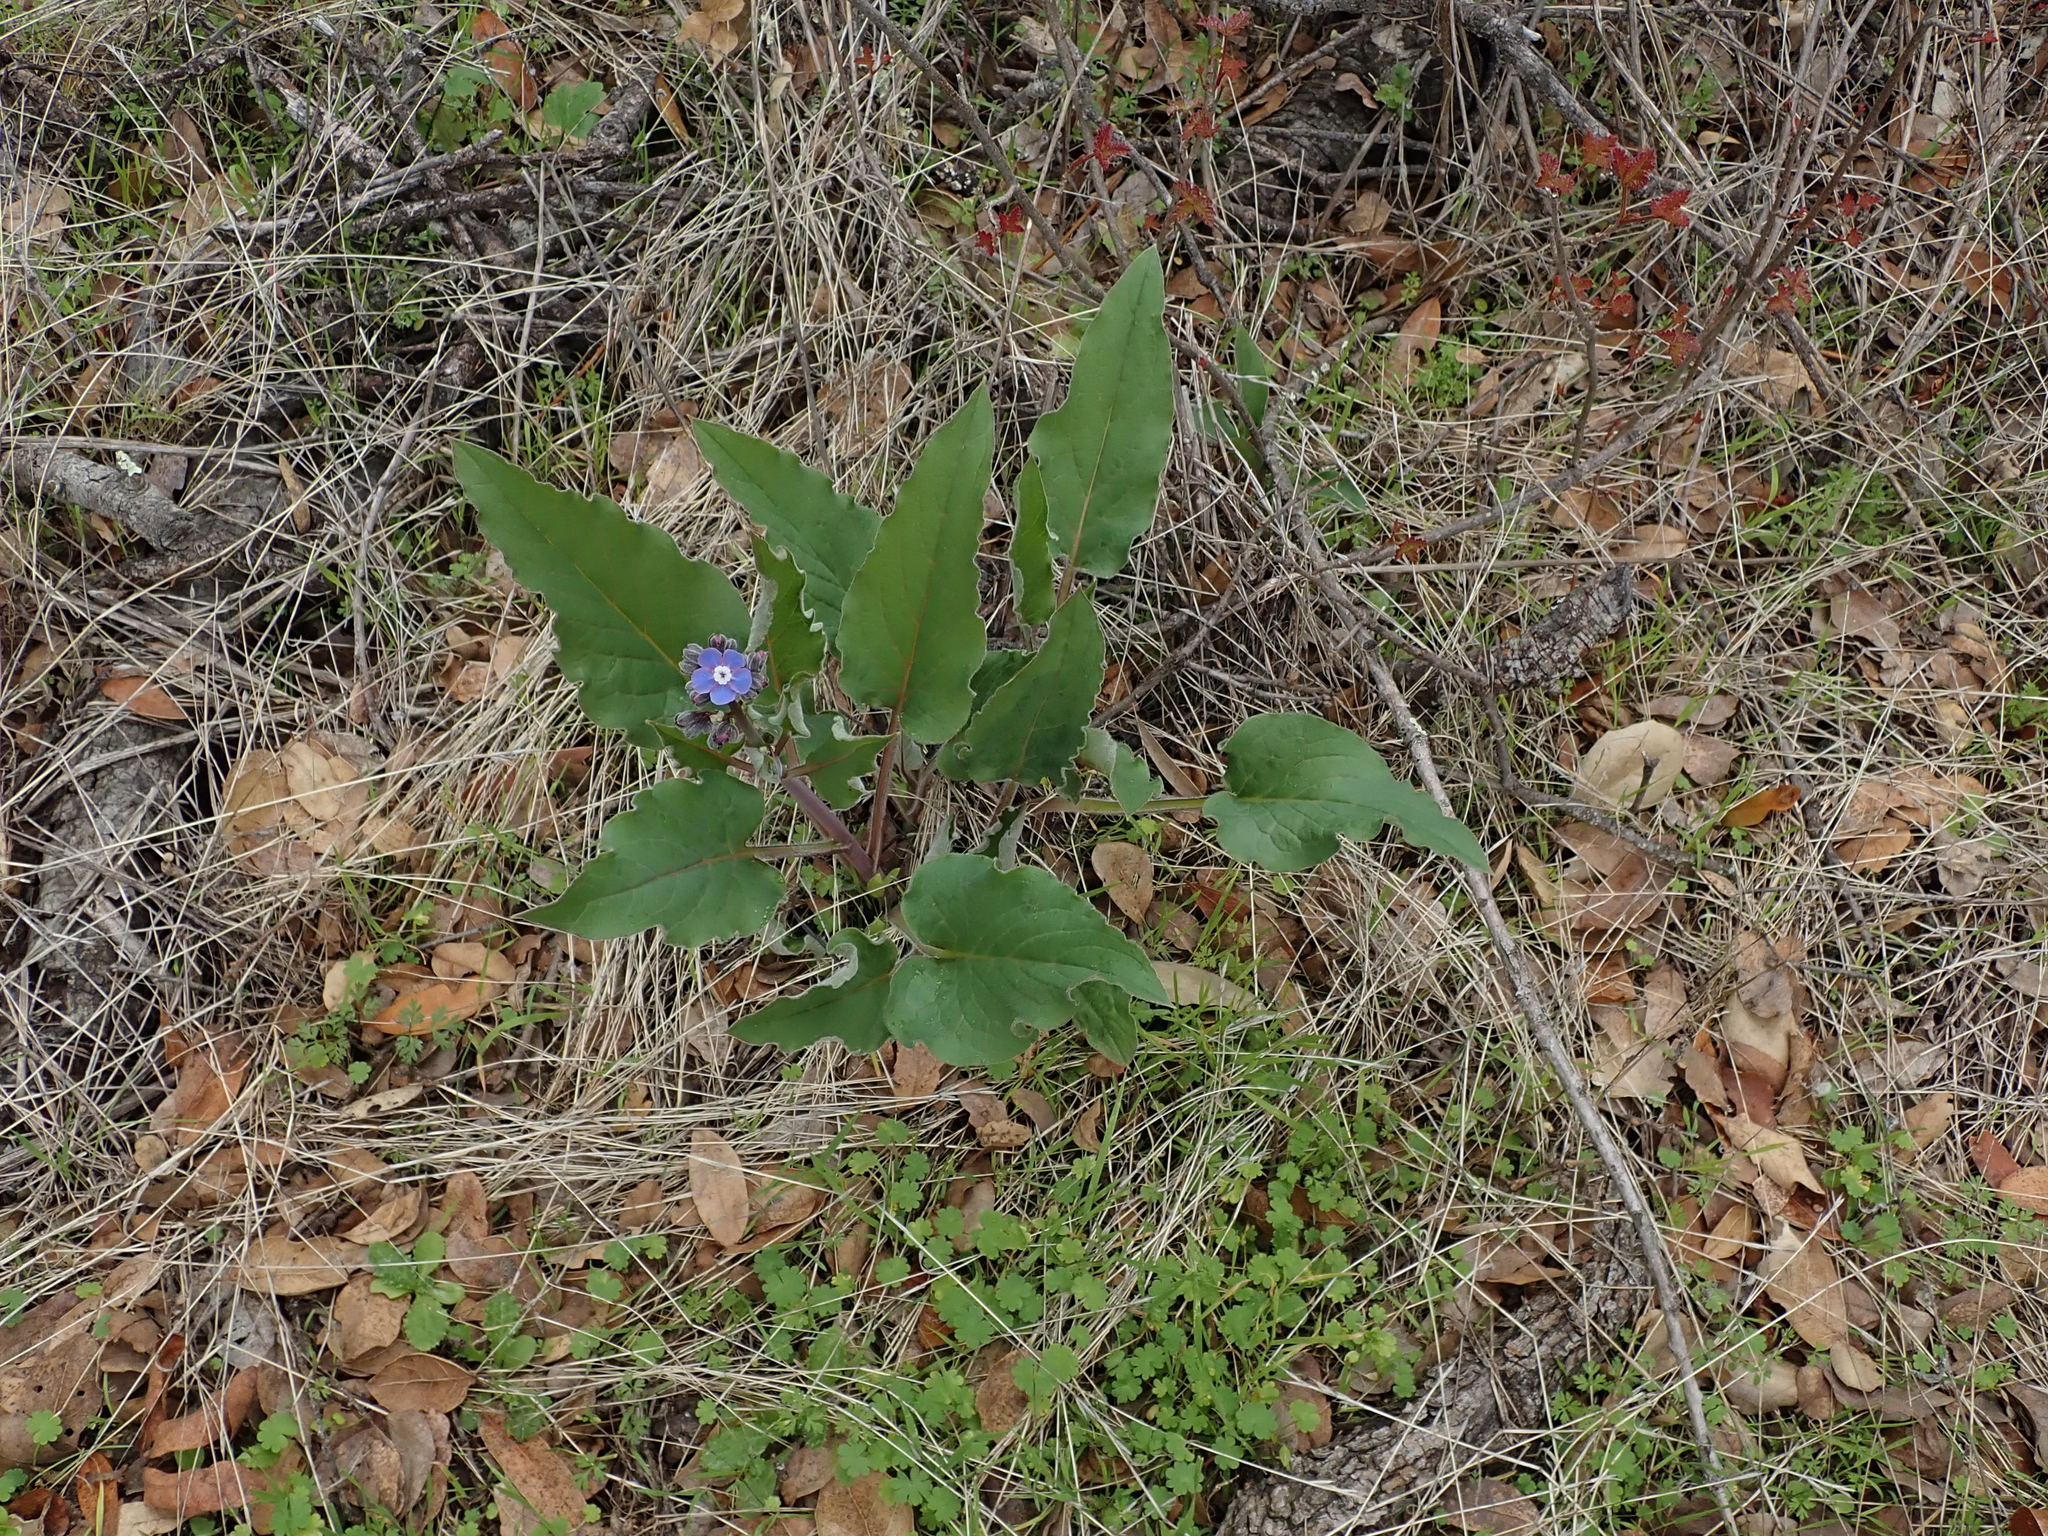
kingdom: Plantae
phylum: Tracheophyta
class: Magnoliopsida
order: Boraginales
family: Boraginaceae
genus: Adelinia
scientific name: Adelinia grande
